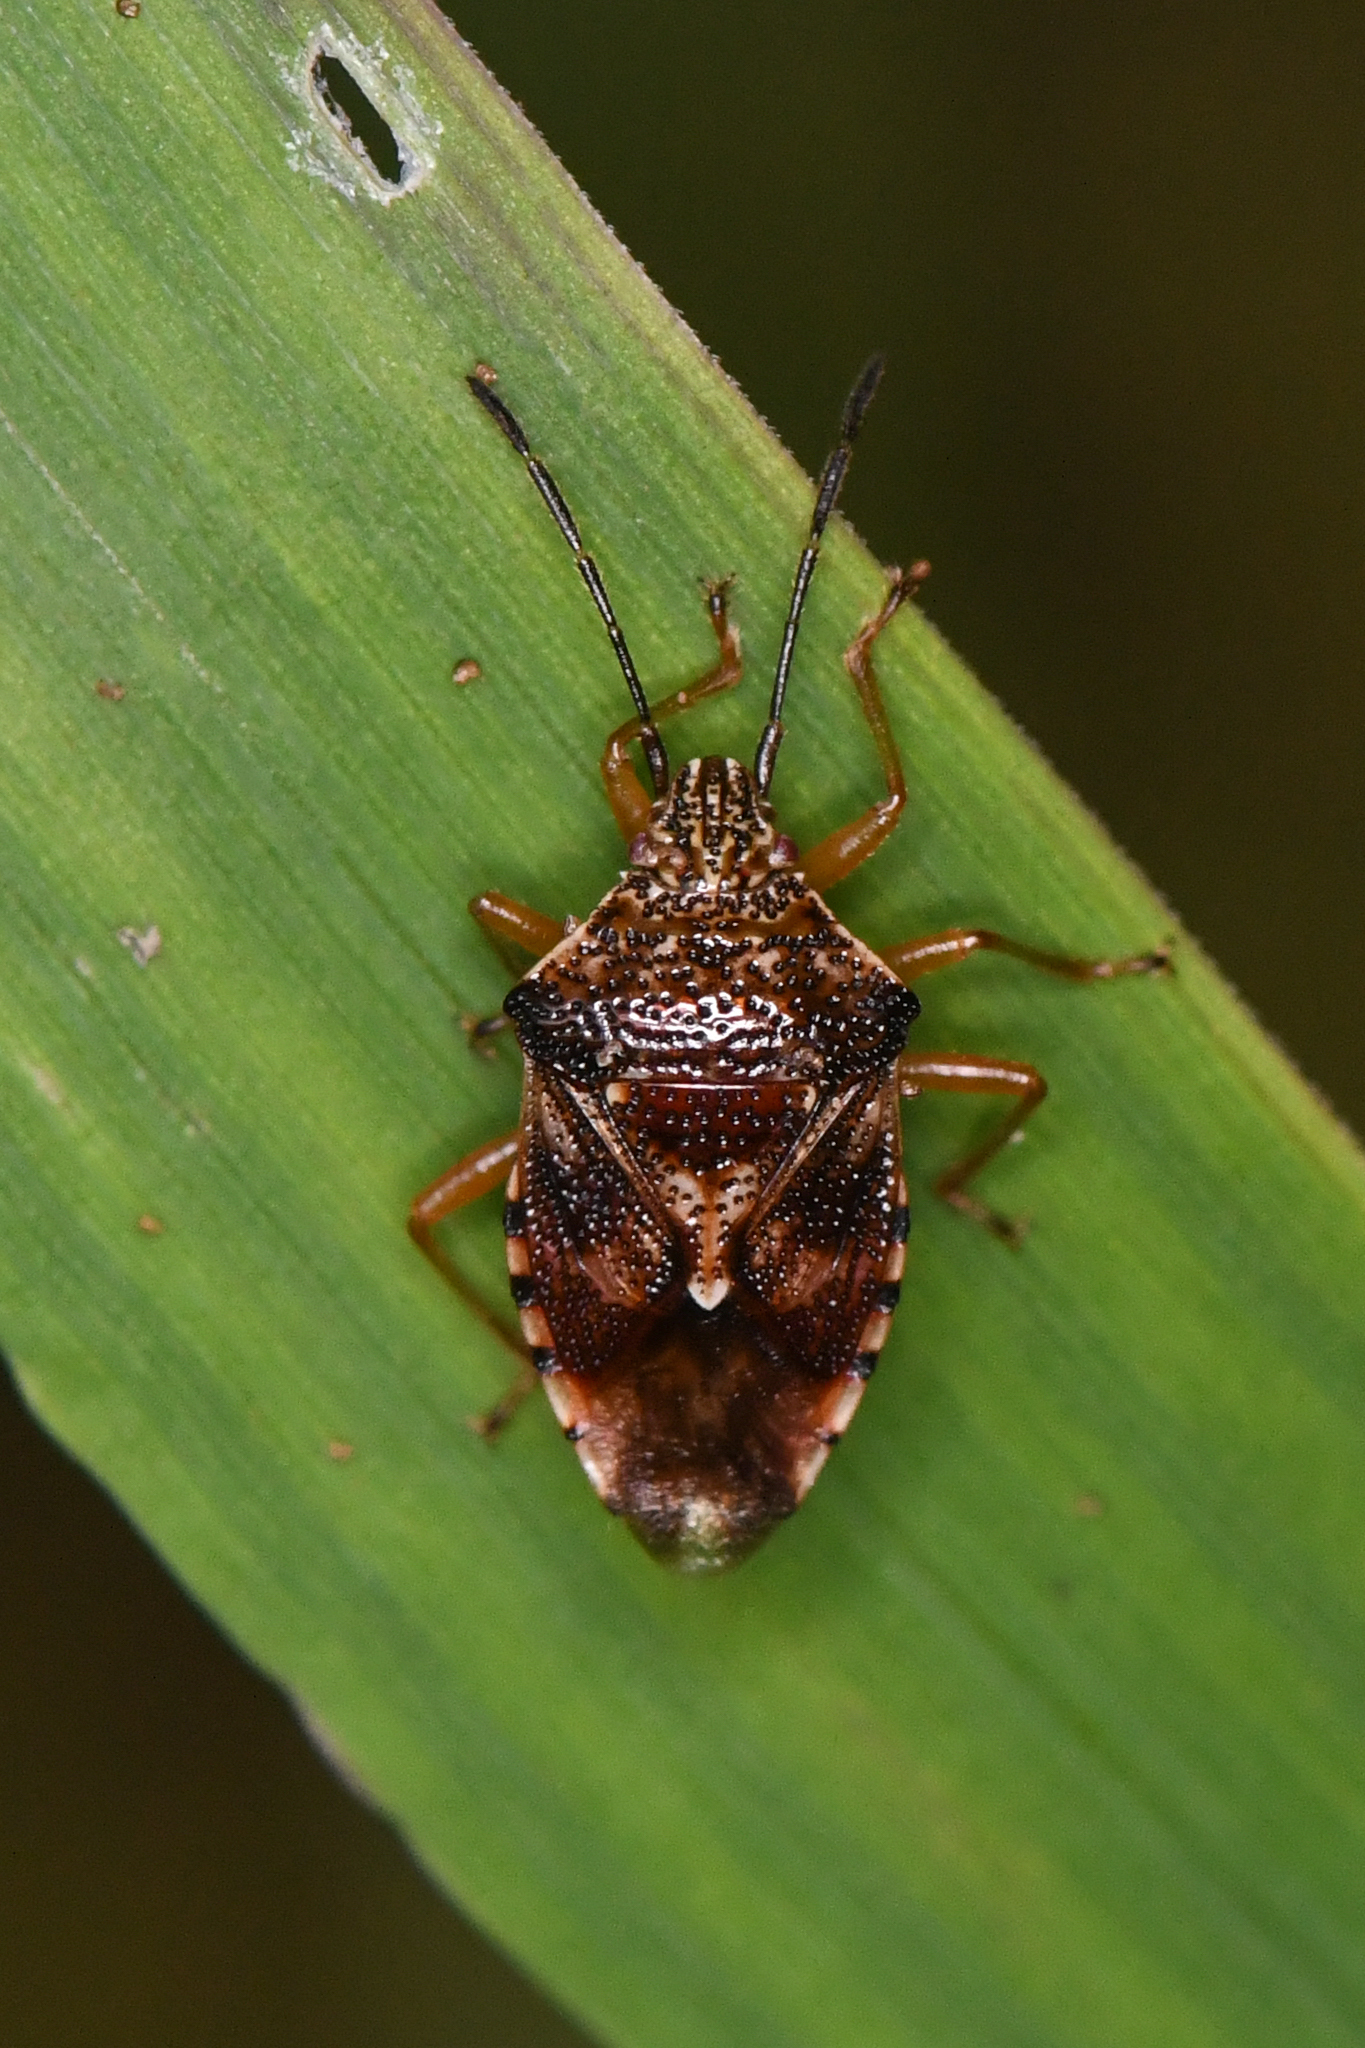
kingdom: Animalia
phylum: Arthropoda
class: Insecta
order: Hemiptera
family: Acanthosomatidae
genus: Elasmucha
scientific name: Elasmucha lateralis
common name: Shield bug
